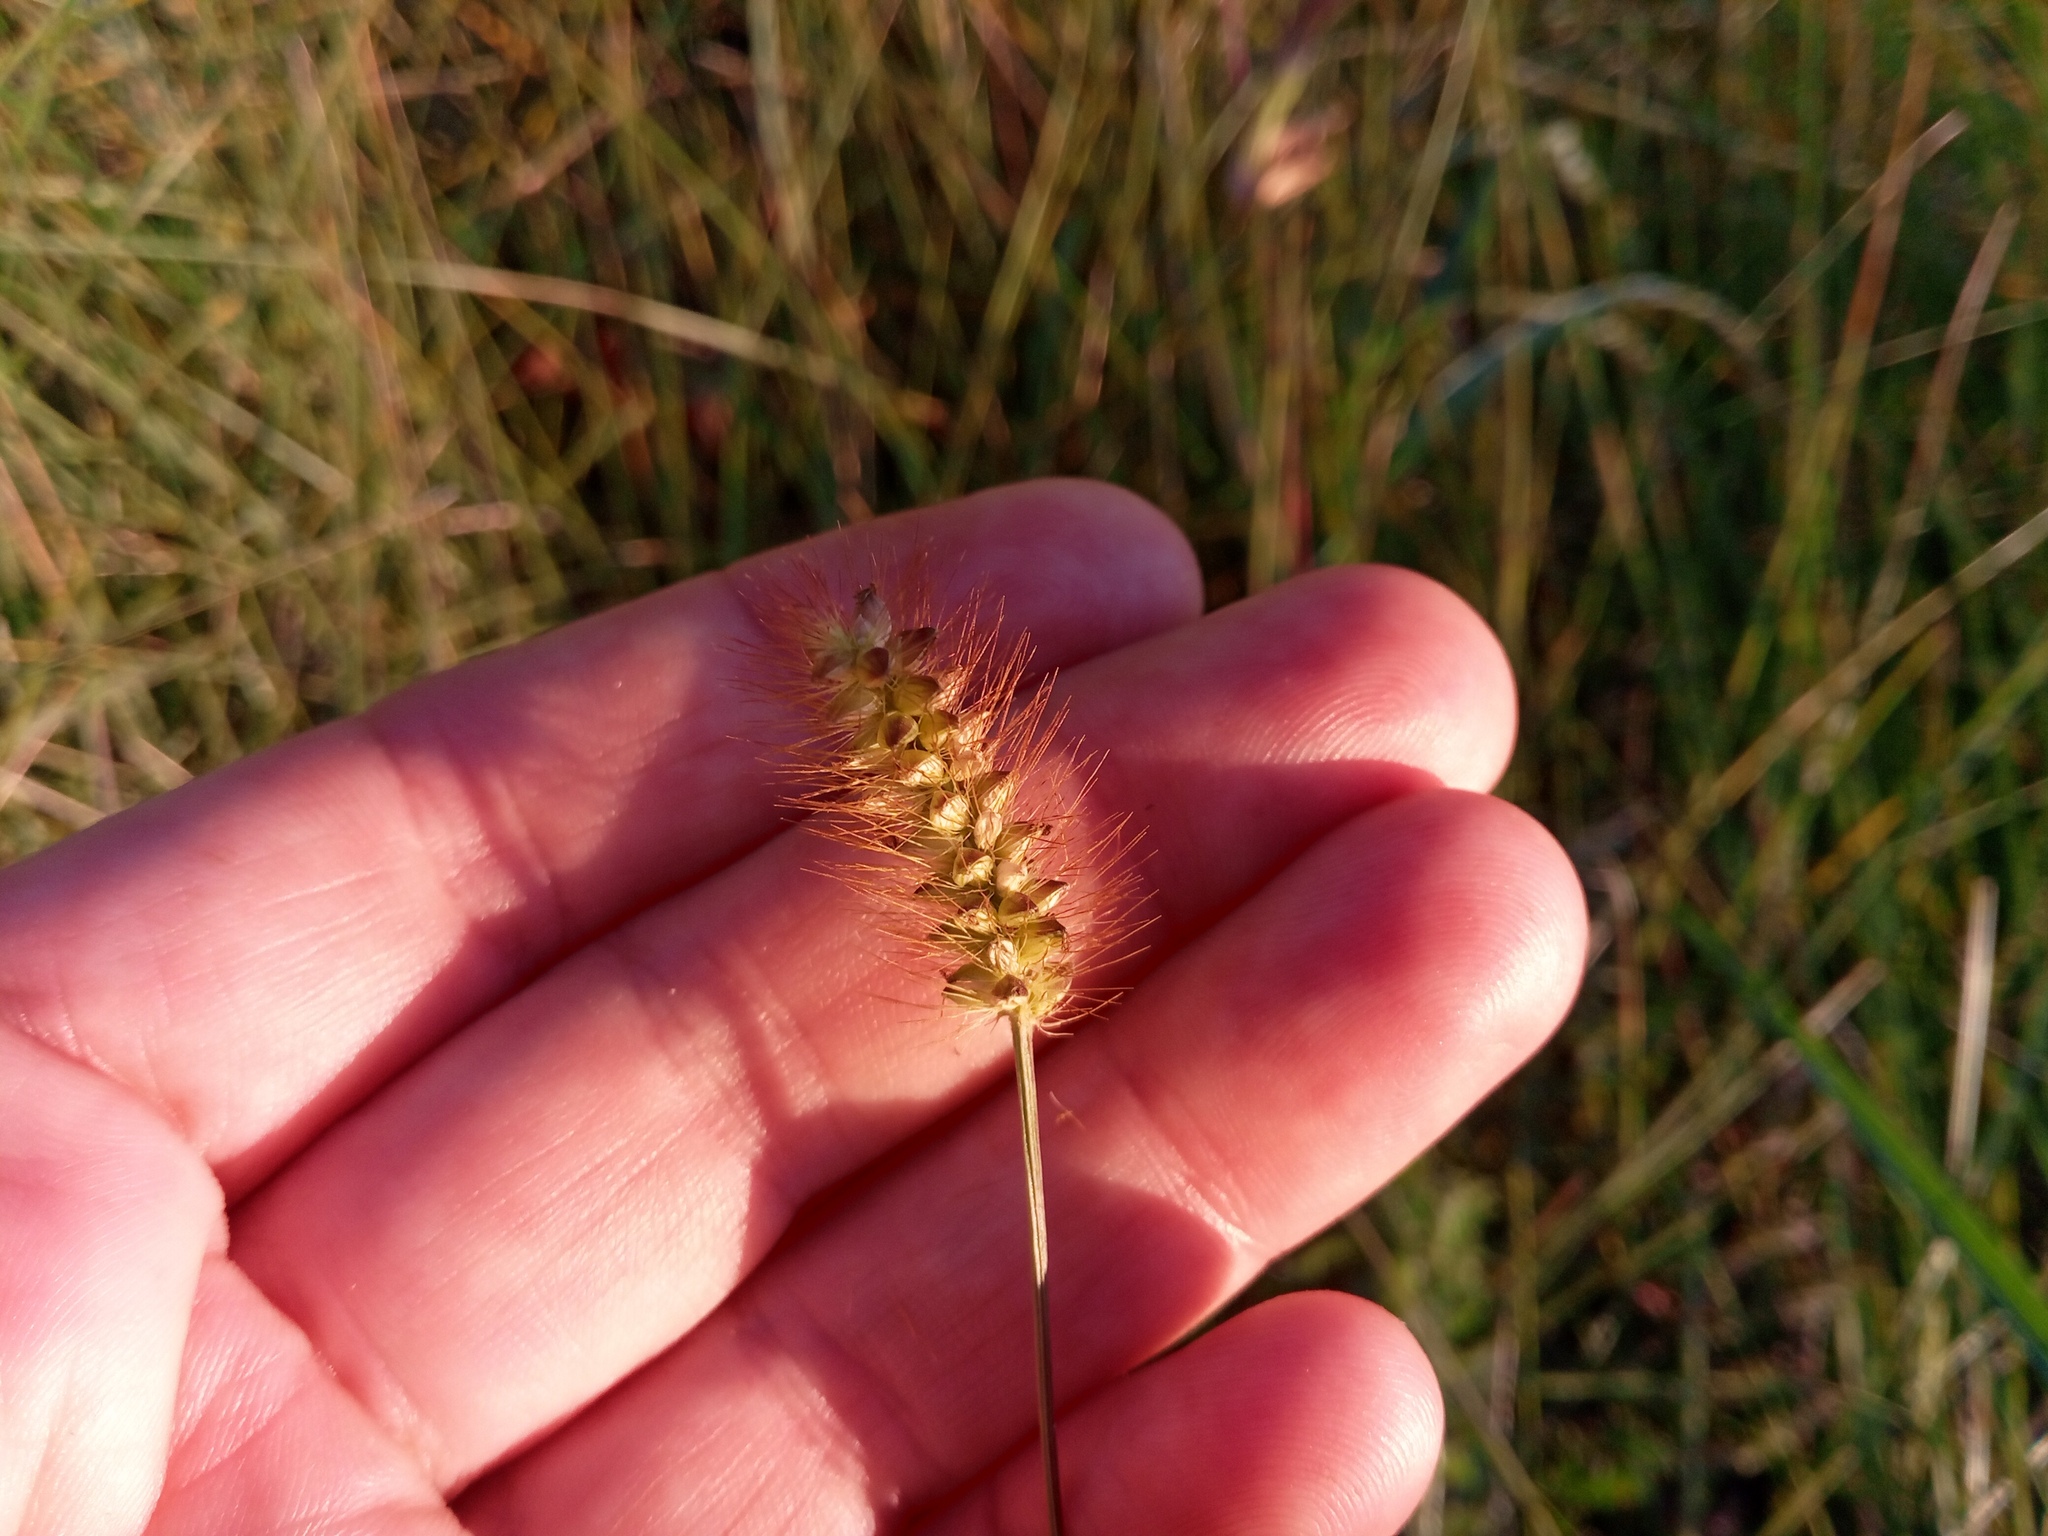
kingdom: Plantae
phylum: Tracheophyta
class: Liliopsida
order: Poales
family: Poaceae
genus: Setaria
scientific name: Setaria pumila
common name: Yellow bristle-grass
